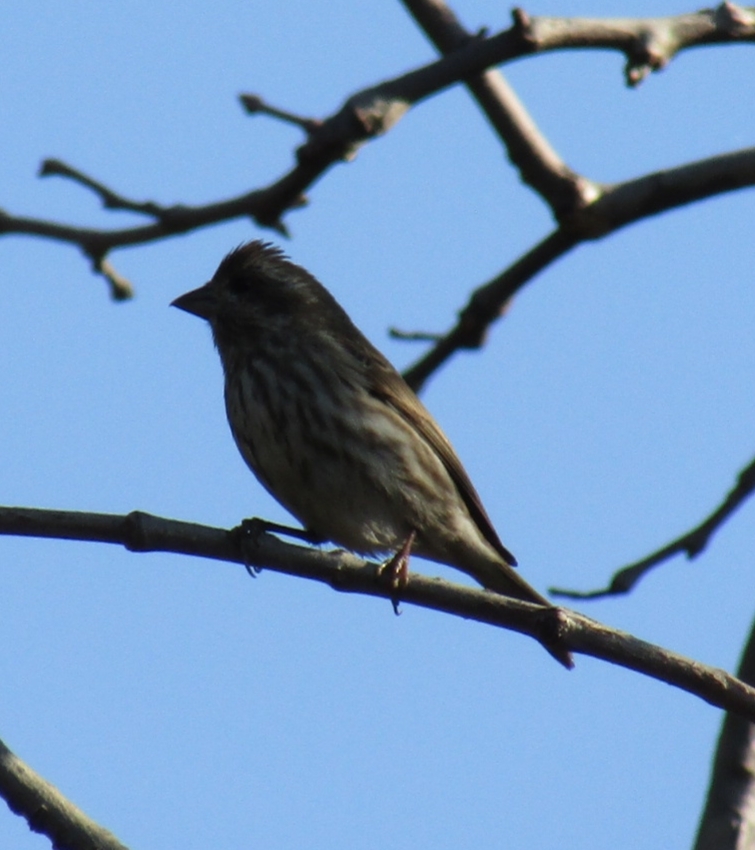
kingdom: Animalia
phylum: Chordata
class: Aves
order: Passeriformes
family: Fringillidae
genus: Haemorhous
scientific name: Haemorhous purpureus
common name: Purple finch
